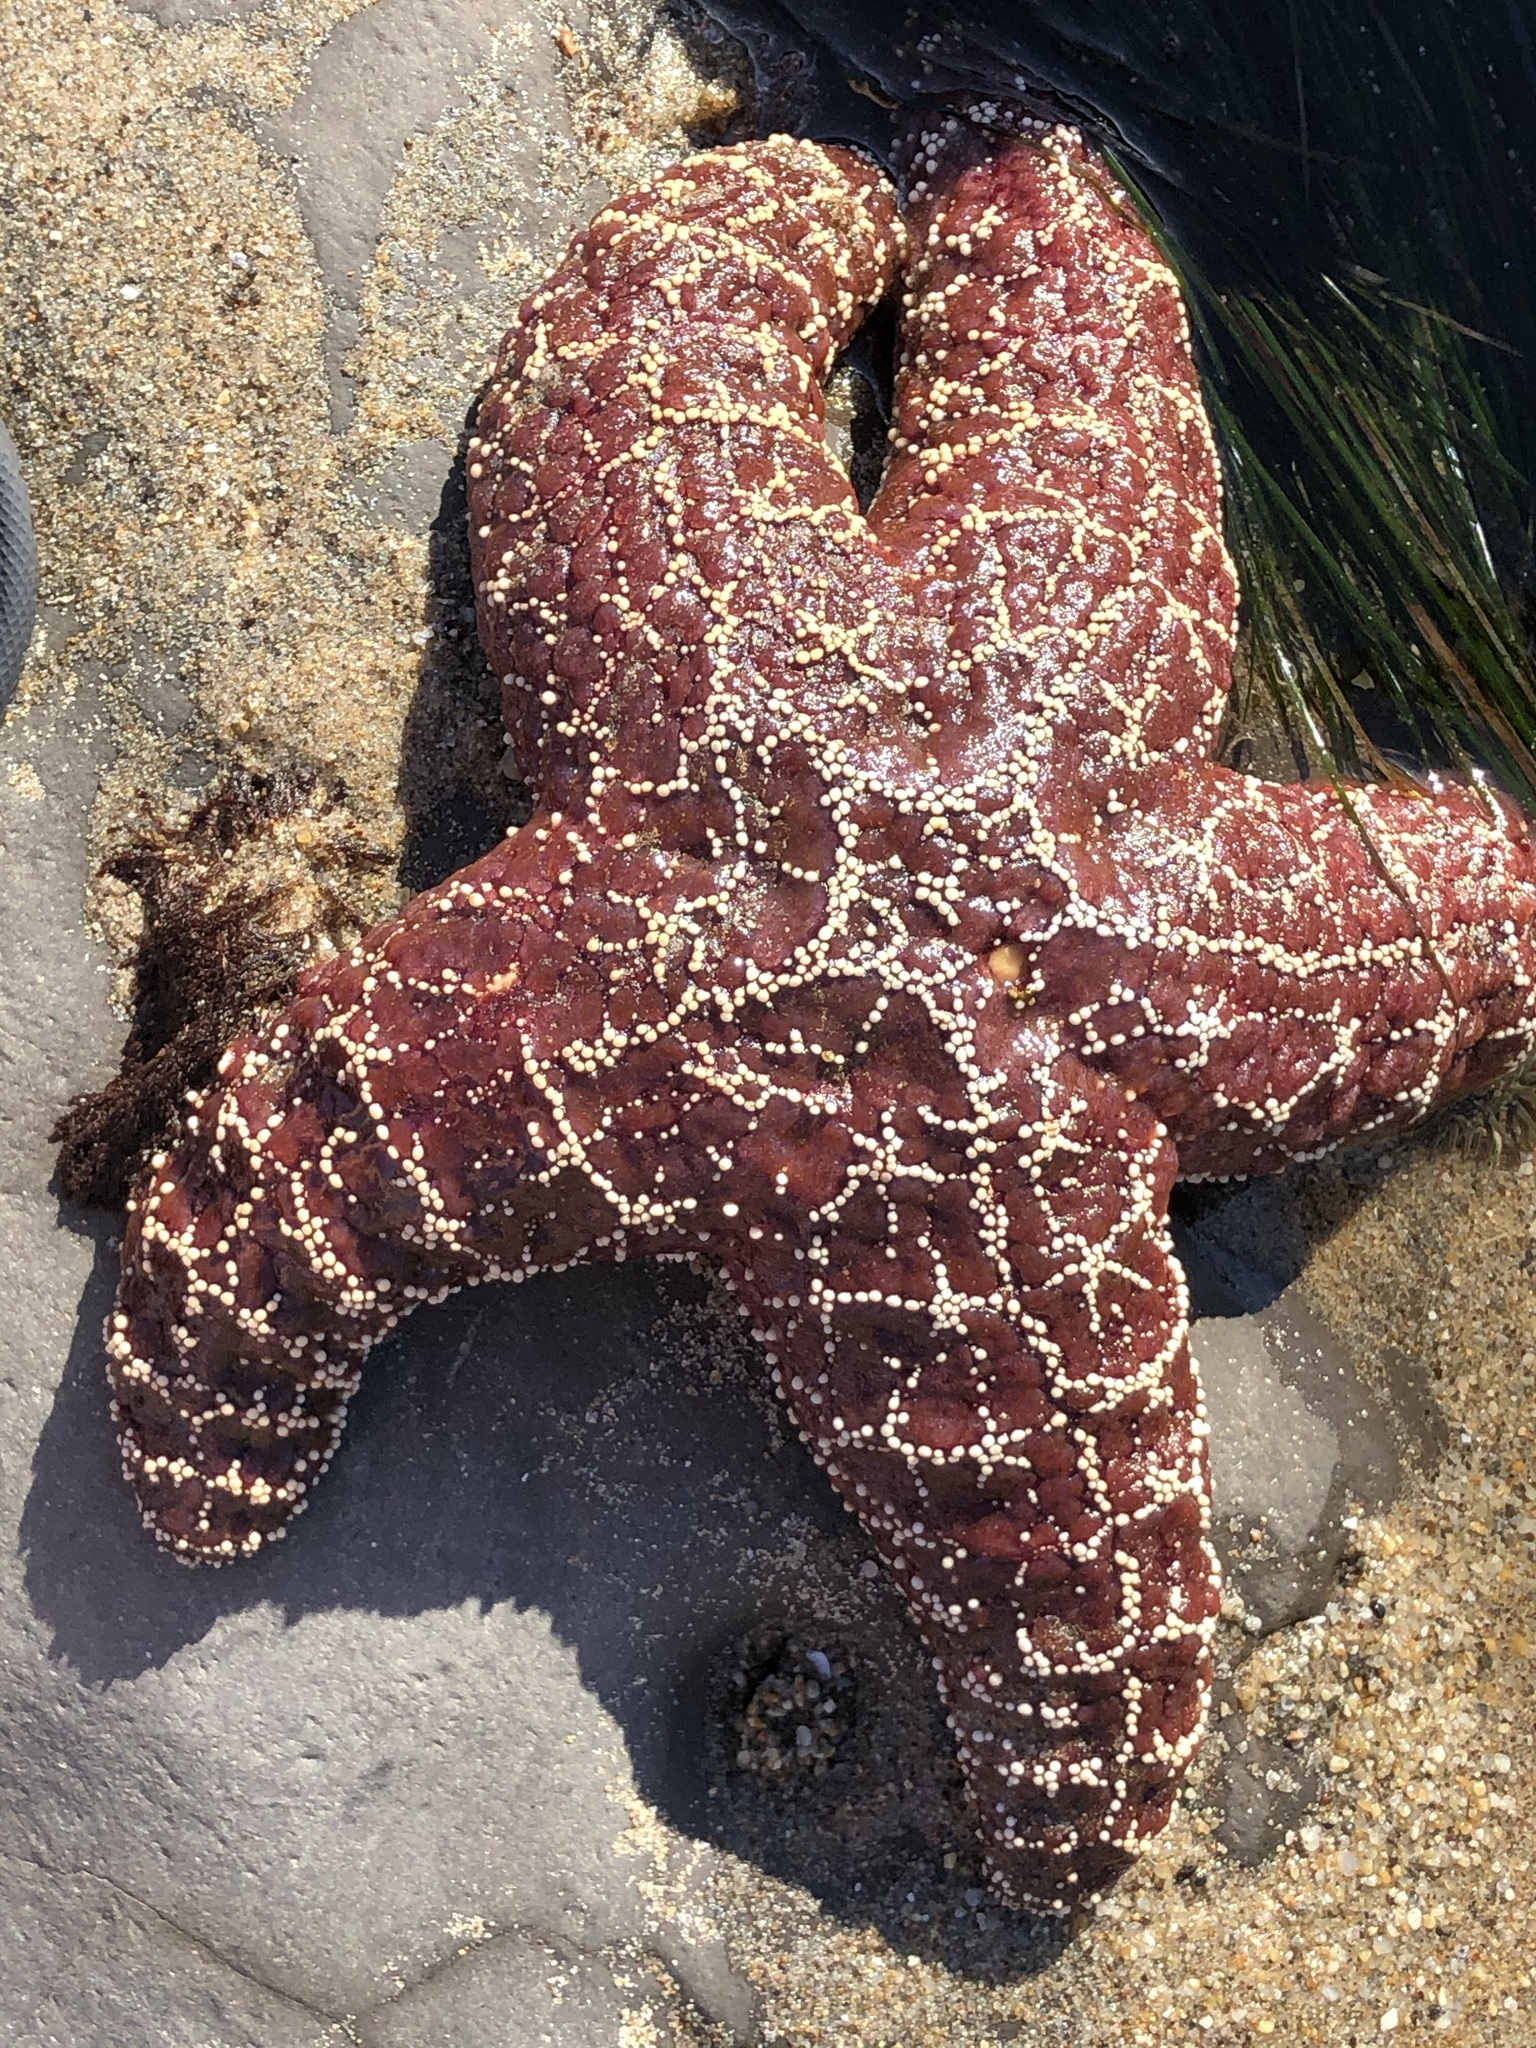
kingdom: Animalia
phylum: Echinodermata
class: Asteroidea
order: Forcipulatida
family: Asteriidae
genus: Pisaster
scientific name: Pisaster ochraceus
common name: Ochre stars
